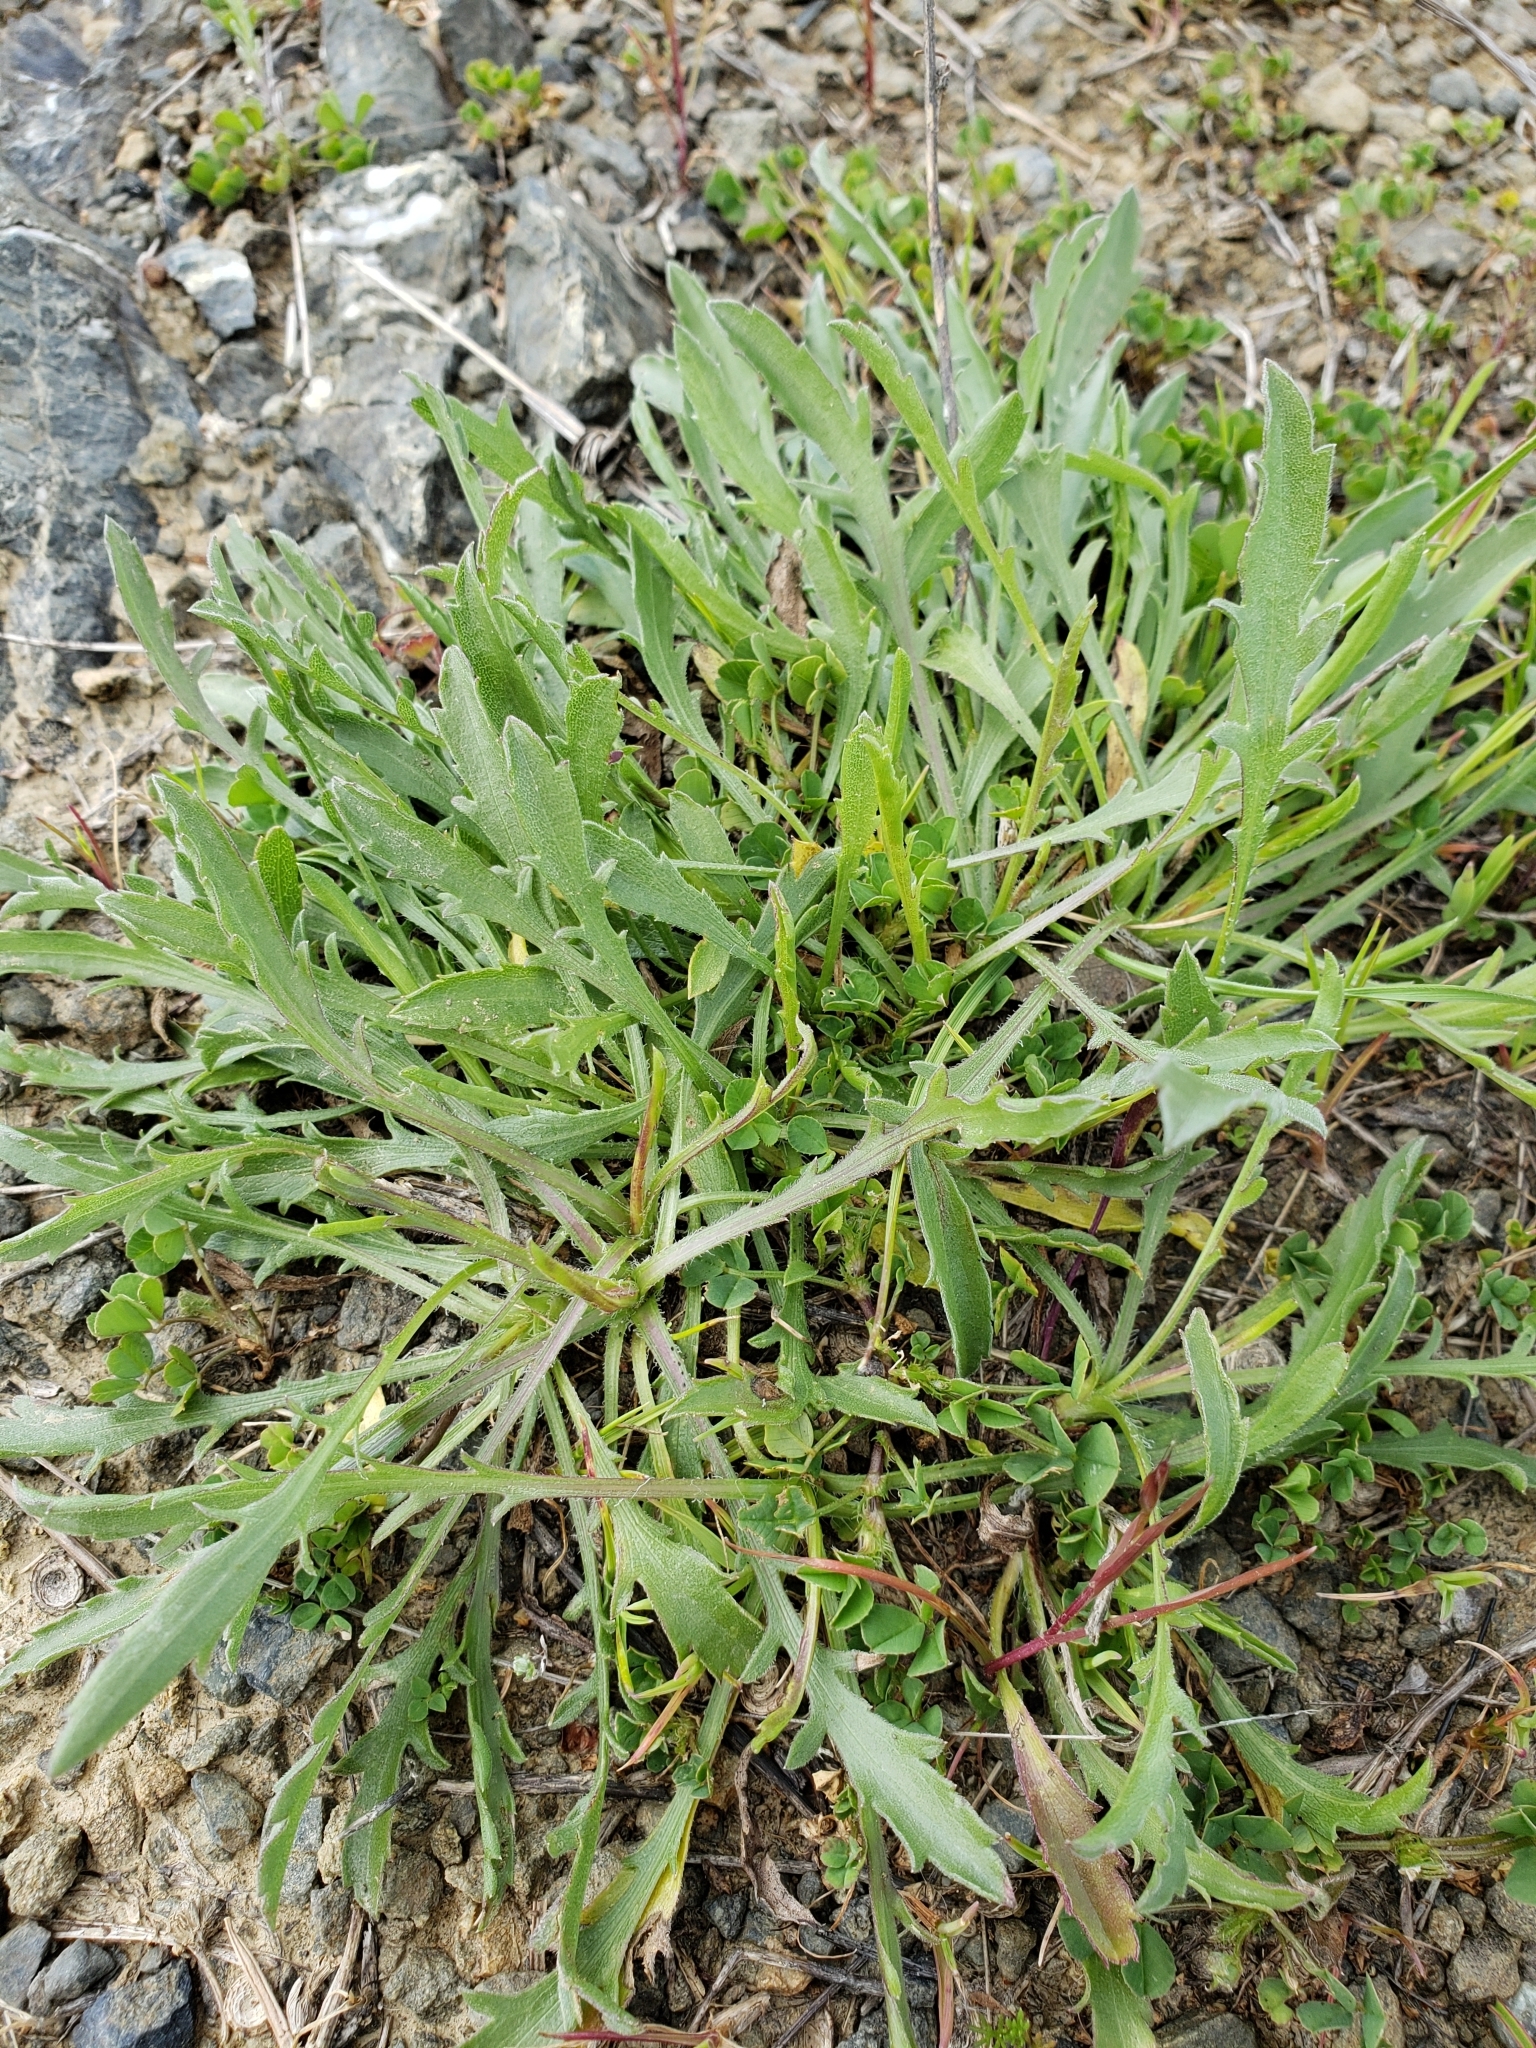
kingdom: Plantae
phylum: Tracheophyta
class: Magnoliopsida
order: Lamiales
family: Plantaginaceae
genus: Plantago
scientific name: Plantago coronopus
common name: Buck's-horn plantain
